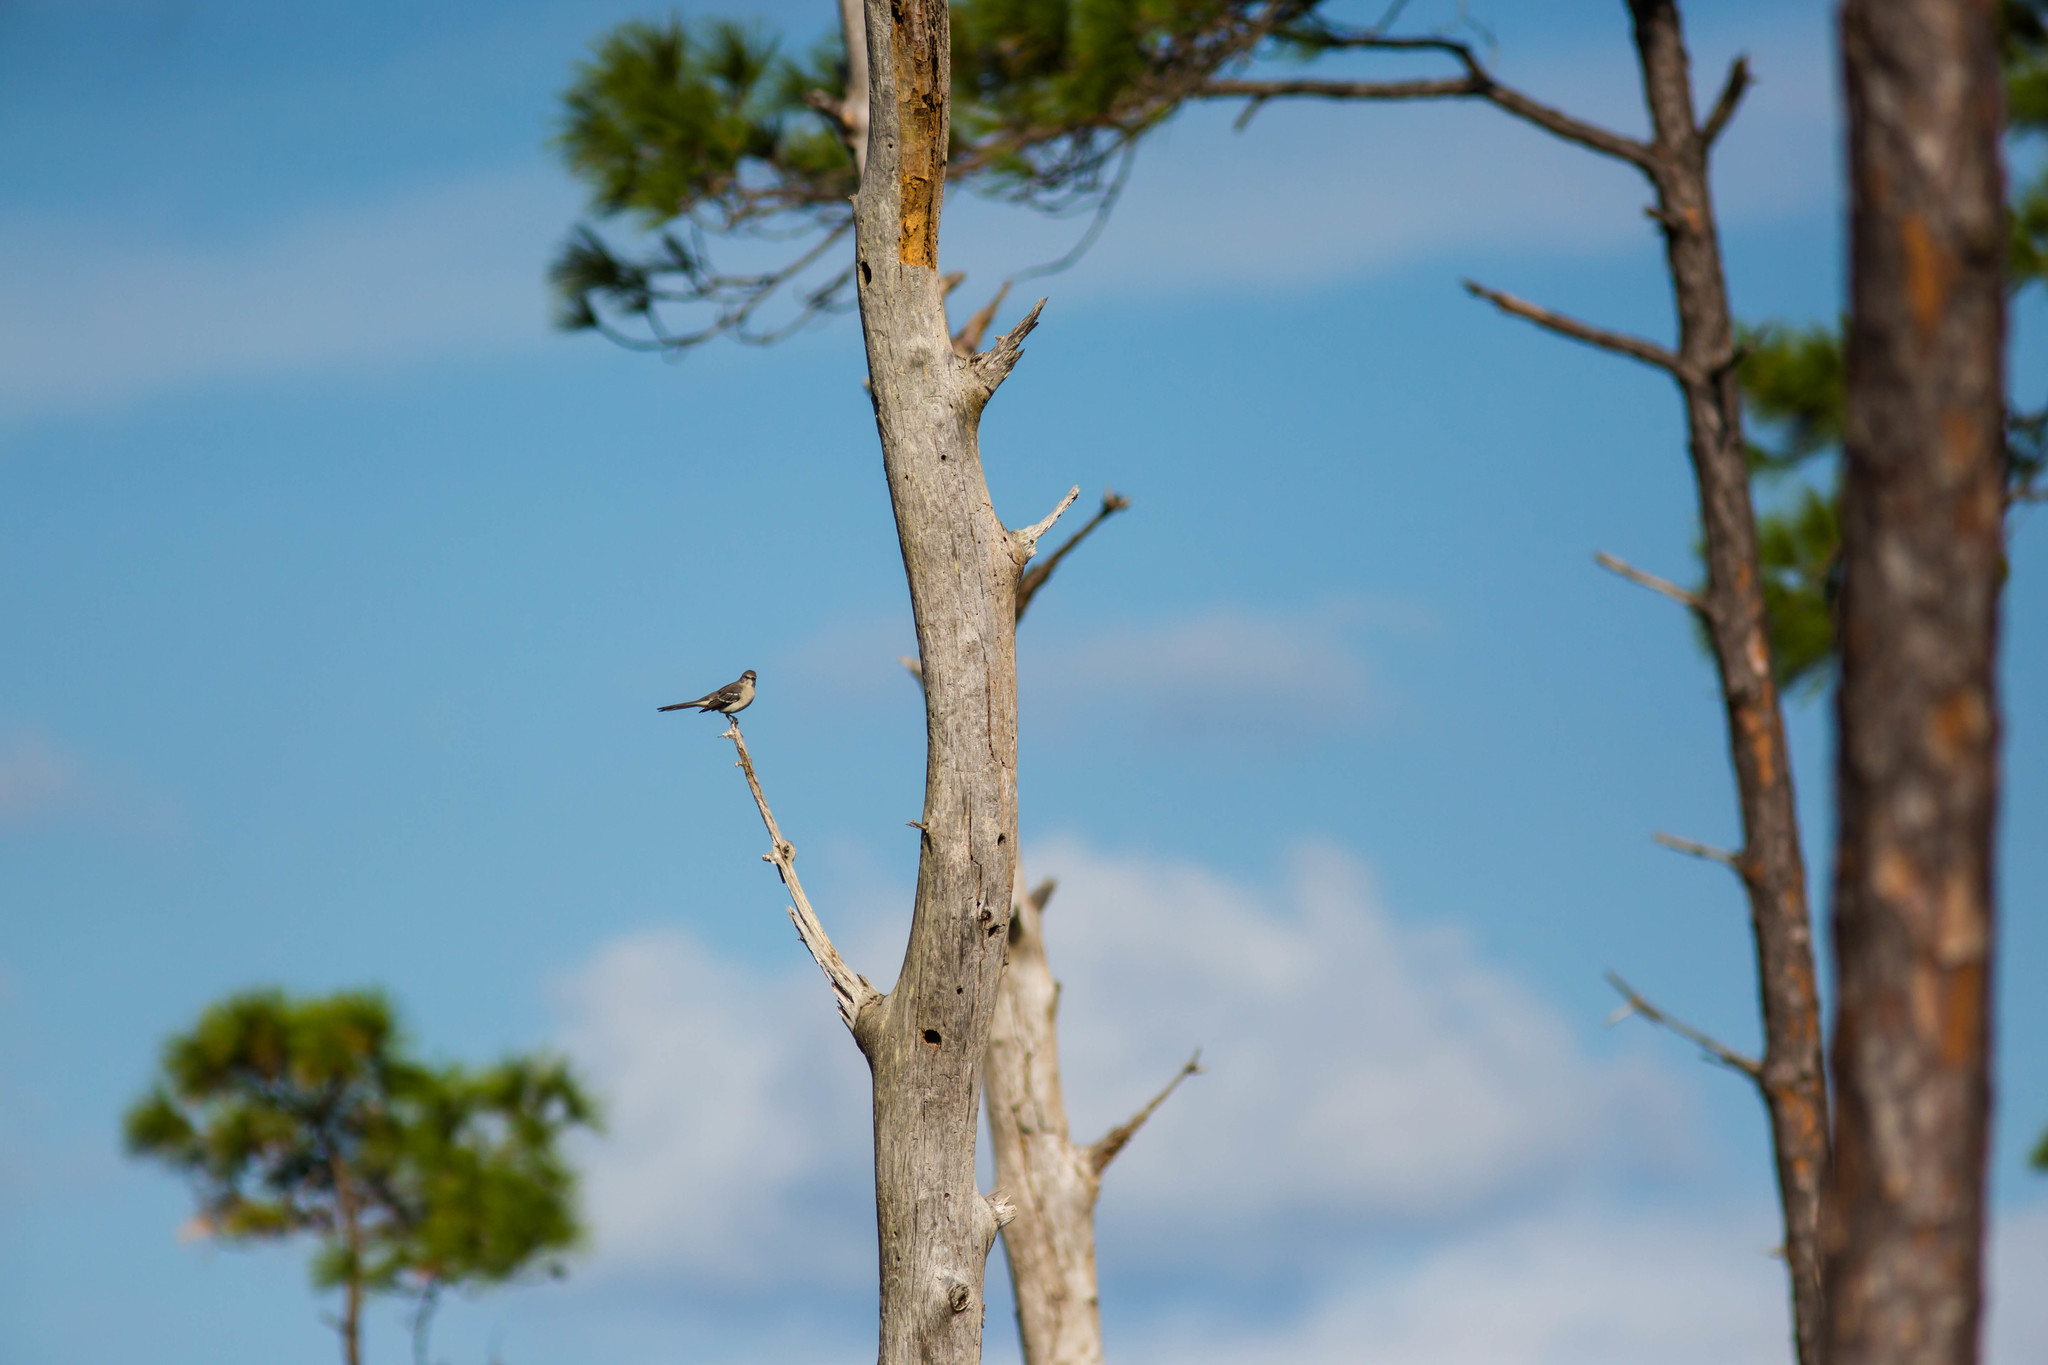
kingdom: Animalia
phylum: Chordata
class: Aves
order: Passeriformes
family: Mimidae
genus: Mimus
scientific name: Mimus polyglottos
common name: Northern mockingbird
